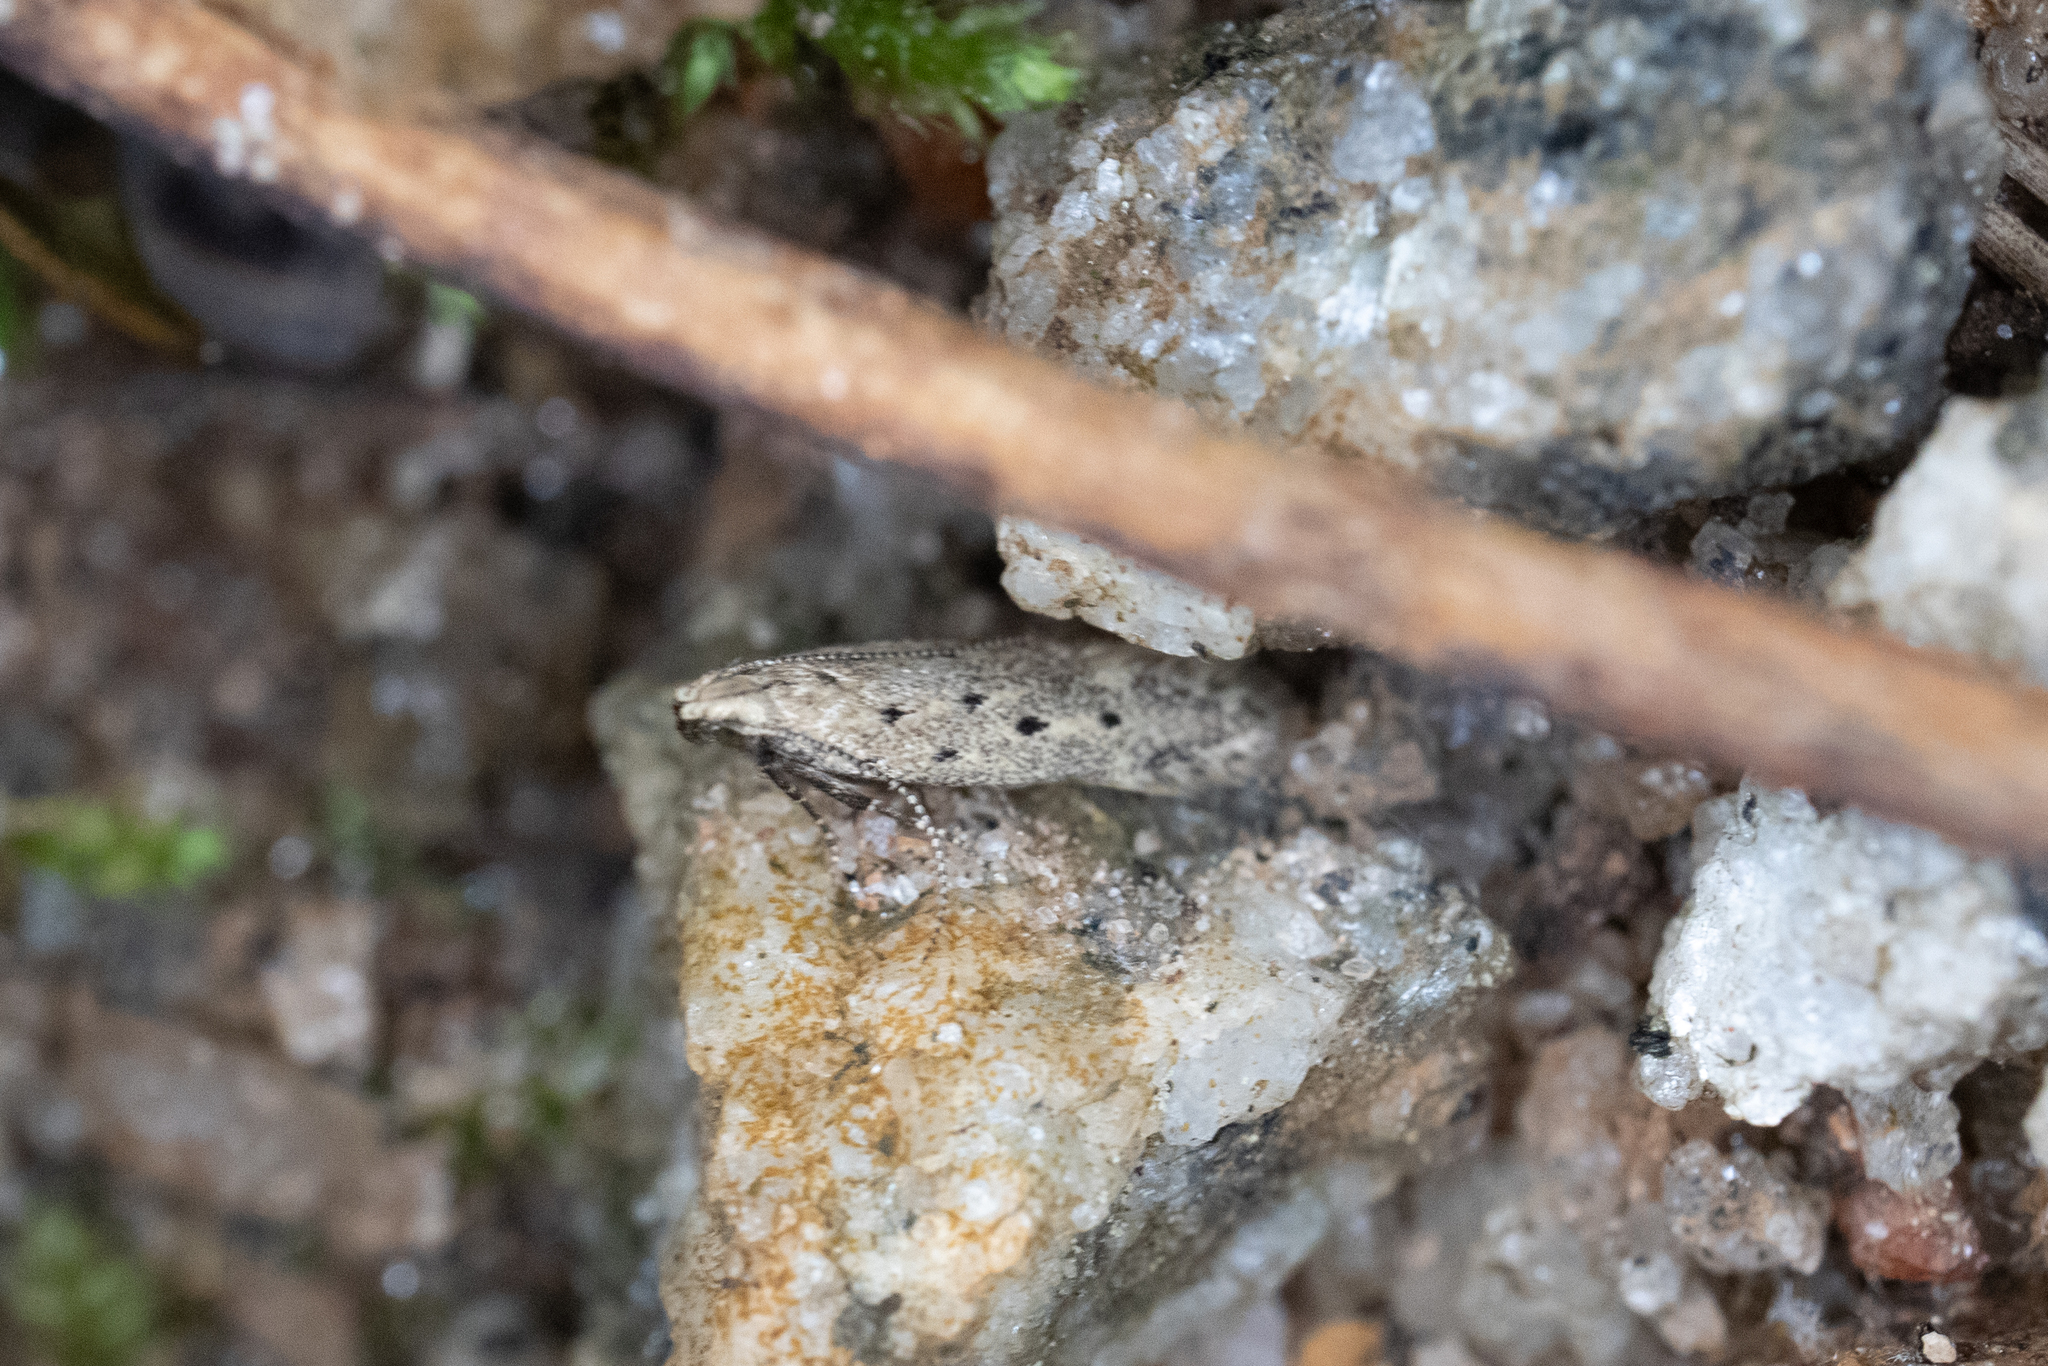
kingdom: Animalia
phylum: Arthropoda
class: Insecta
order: Lepidoptera
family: Gelechiidae
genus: Monochroa
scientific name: Monochroa quinquepunctella
